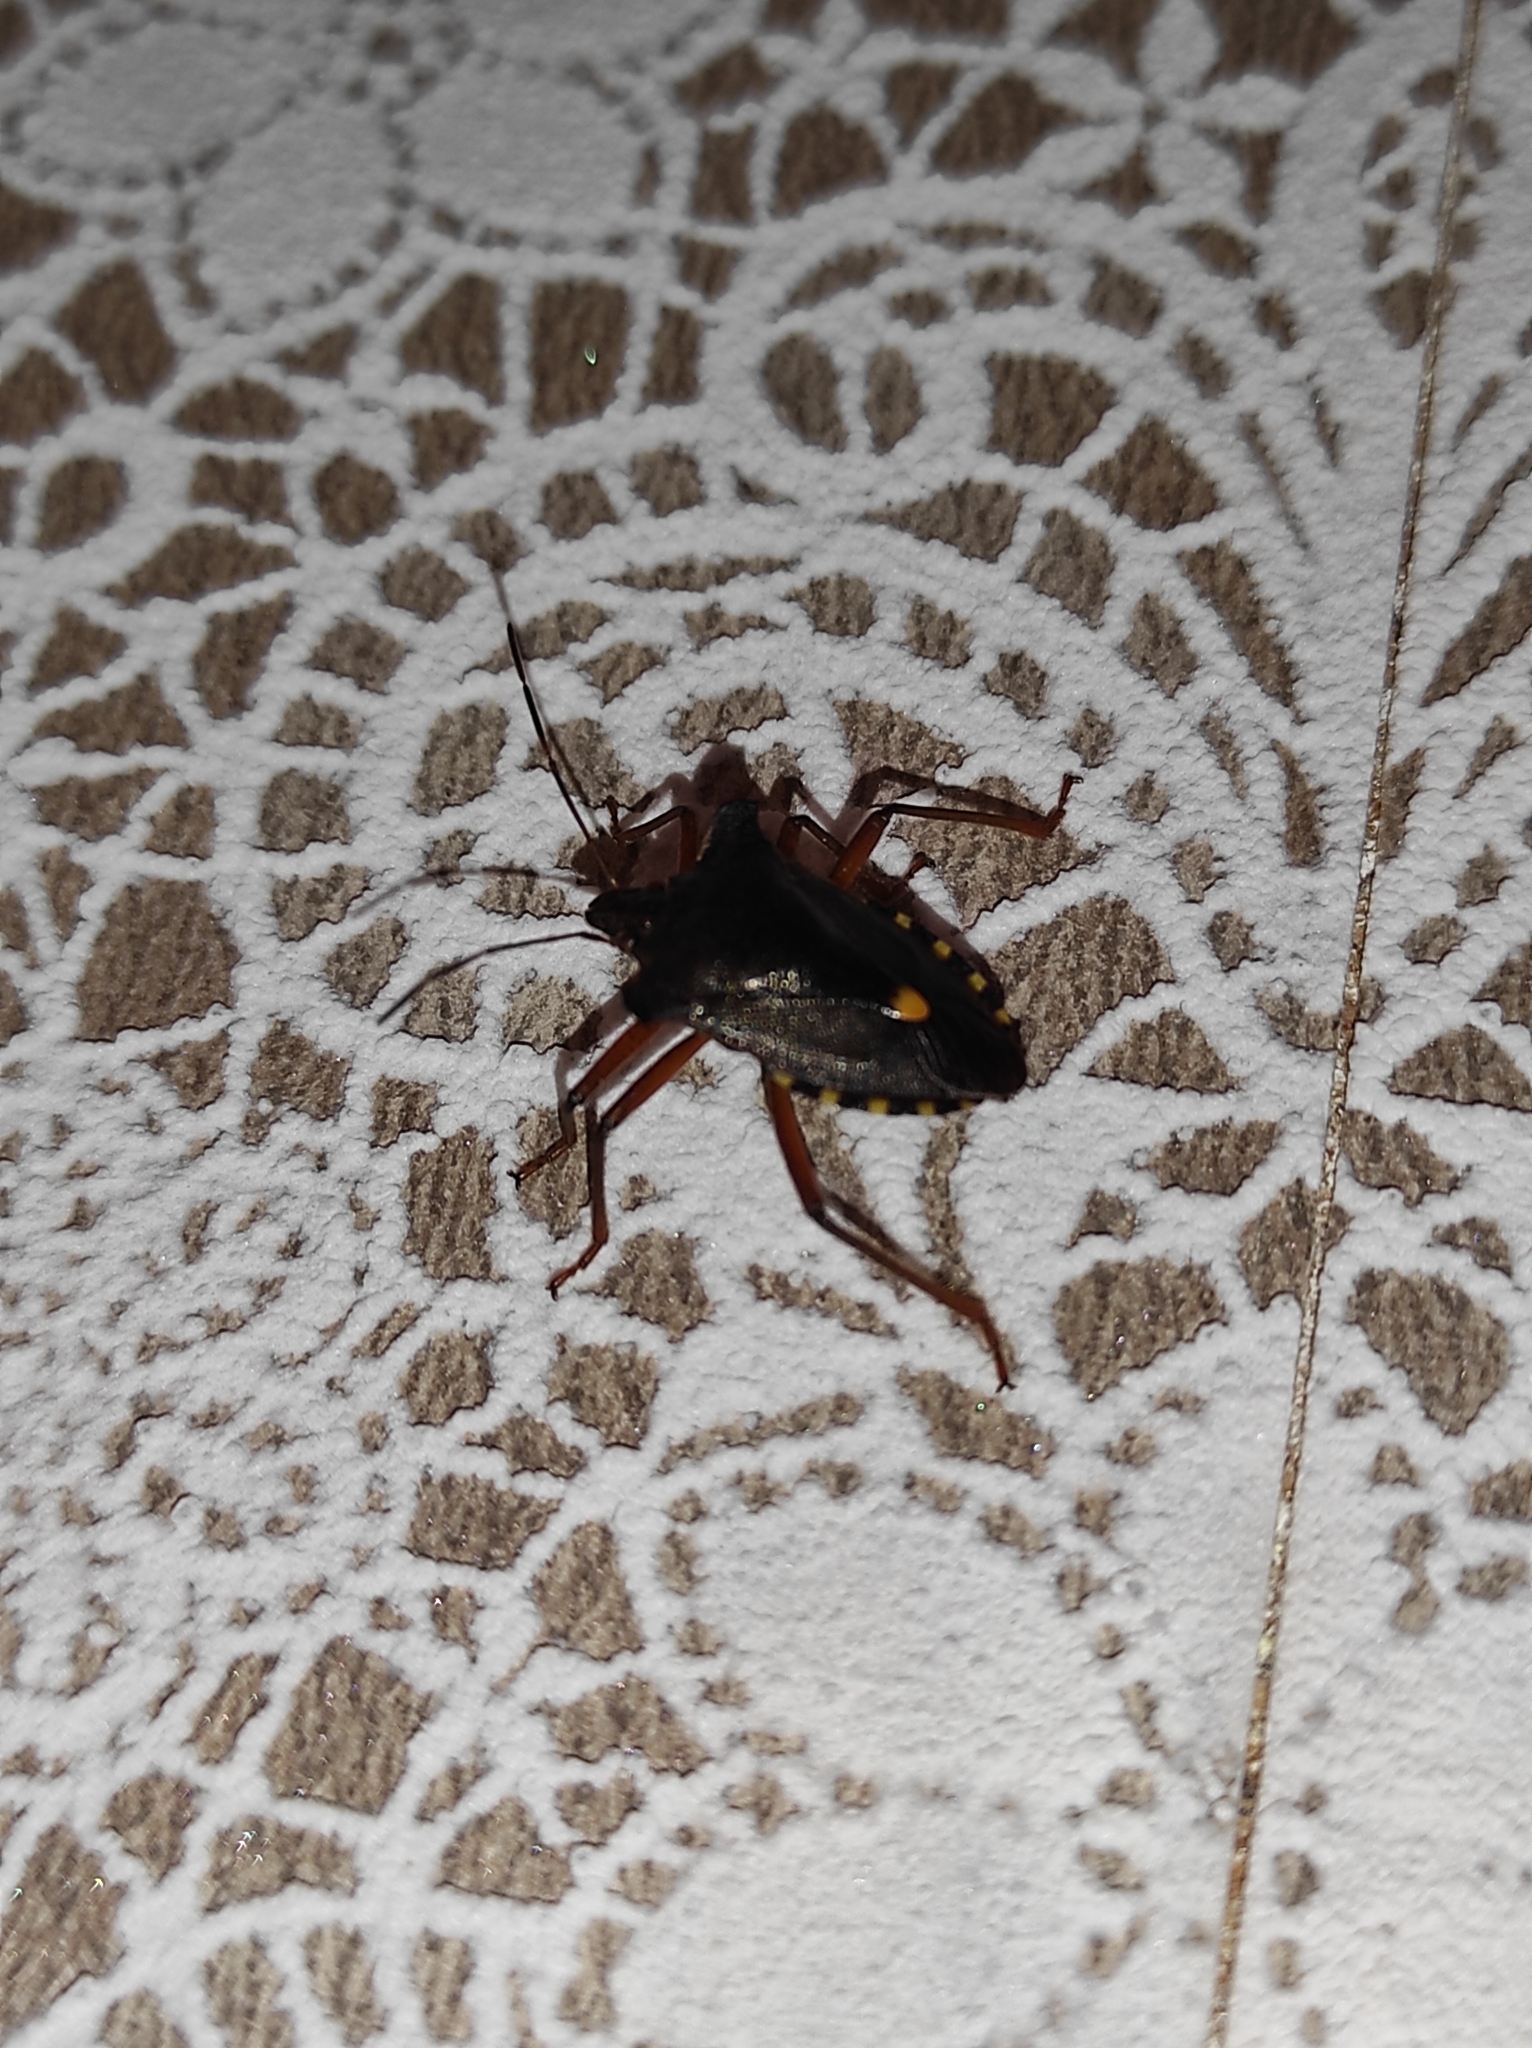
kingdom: Animalia
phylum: Arthropoda
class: Insecta
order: Hemiptera
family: Pentatomidae
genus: Pentatoma
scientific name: Pentatoma rufipes
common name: Forest bug
